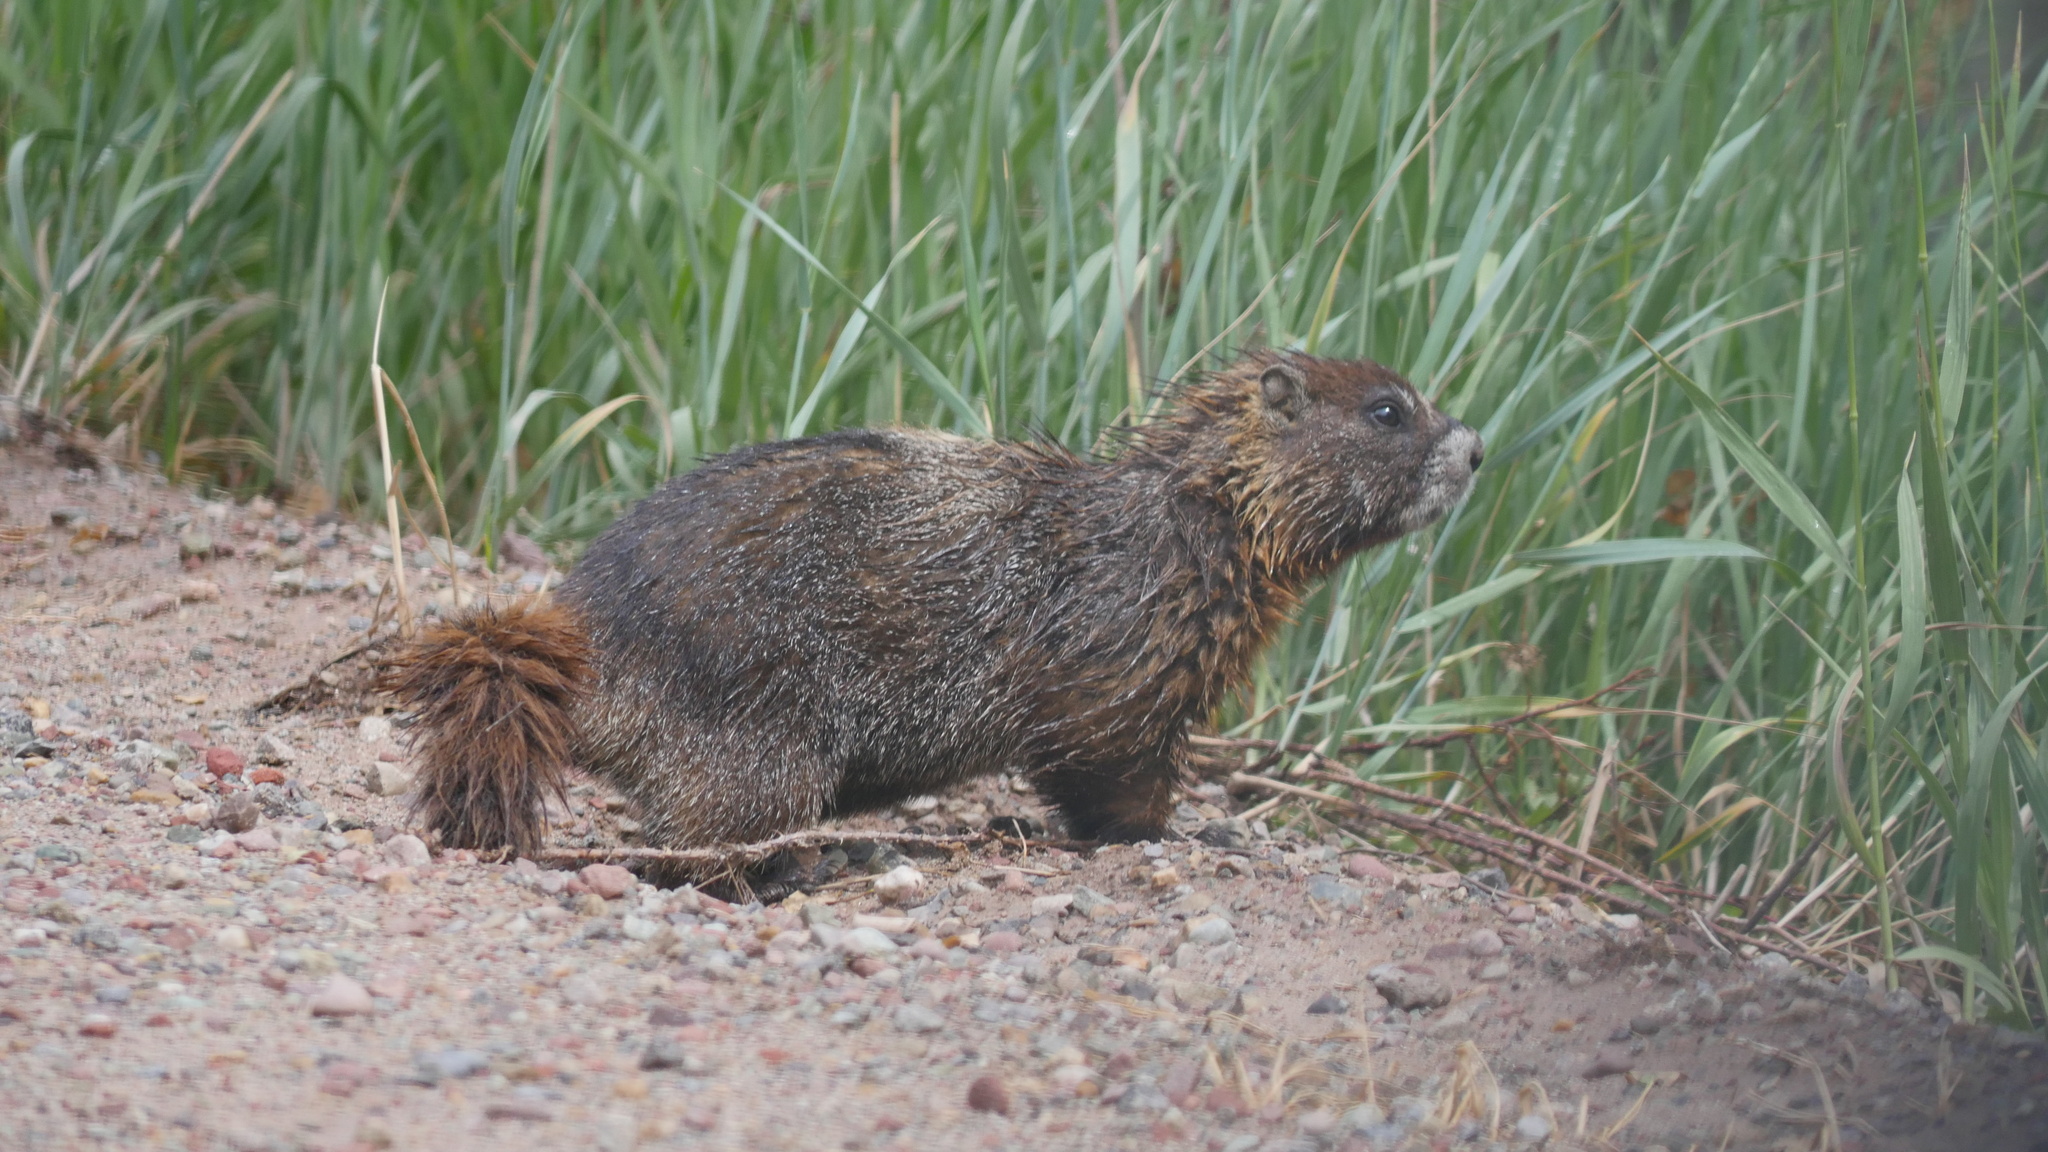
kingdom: Animalia
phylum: Chordata
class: Mammalia
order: Rodentia
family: Sciuridae
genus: Marmota
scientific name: Marmota flaviventris
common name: Yellow-bellied marmot
